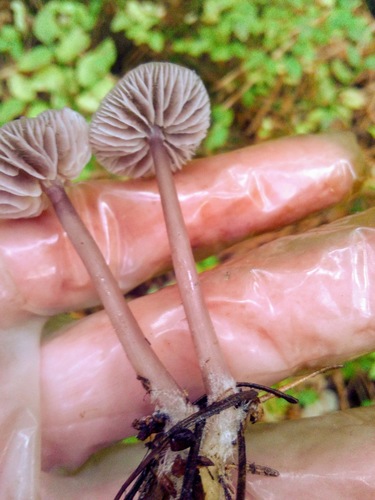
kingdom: Fungi
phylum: Basidiomycota
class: Agaricomycetes
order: Agaricales
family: Mycenaceae
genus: Mycena
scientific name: Mycena pura
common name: Lilac bonnet
